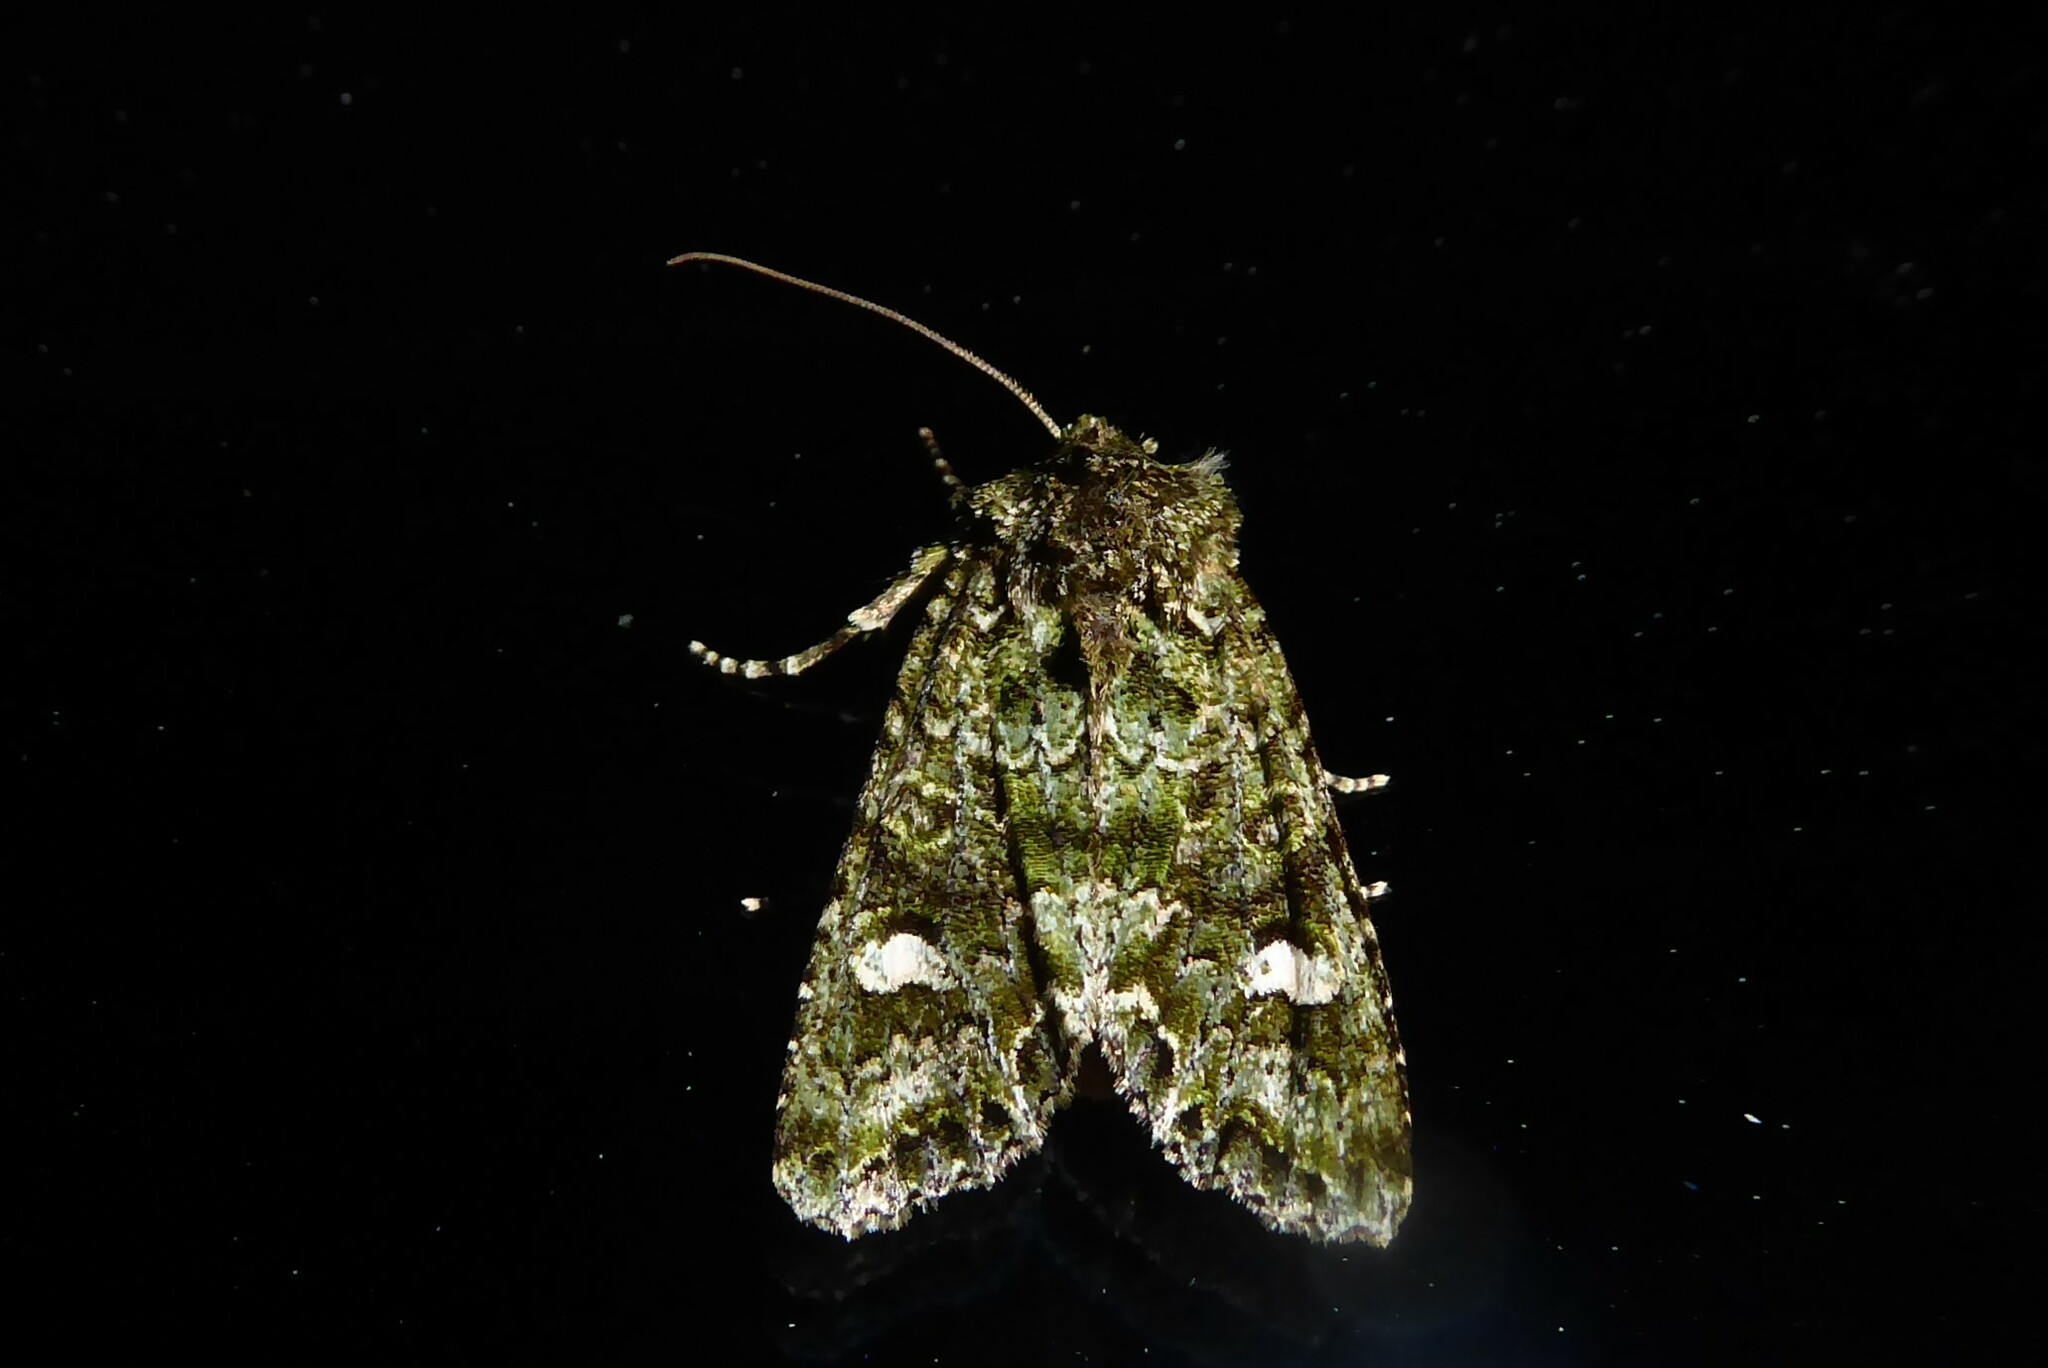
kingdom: Animalia
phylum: Arthropoda
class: Insecta
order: Lepidoptera
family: Noctuidae
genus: Ichneutica
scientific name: Ichneutica
